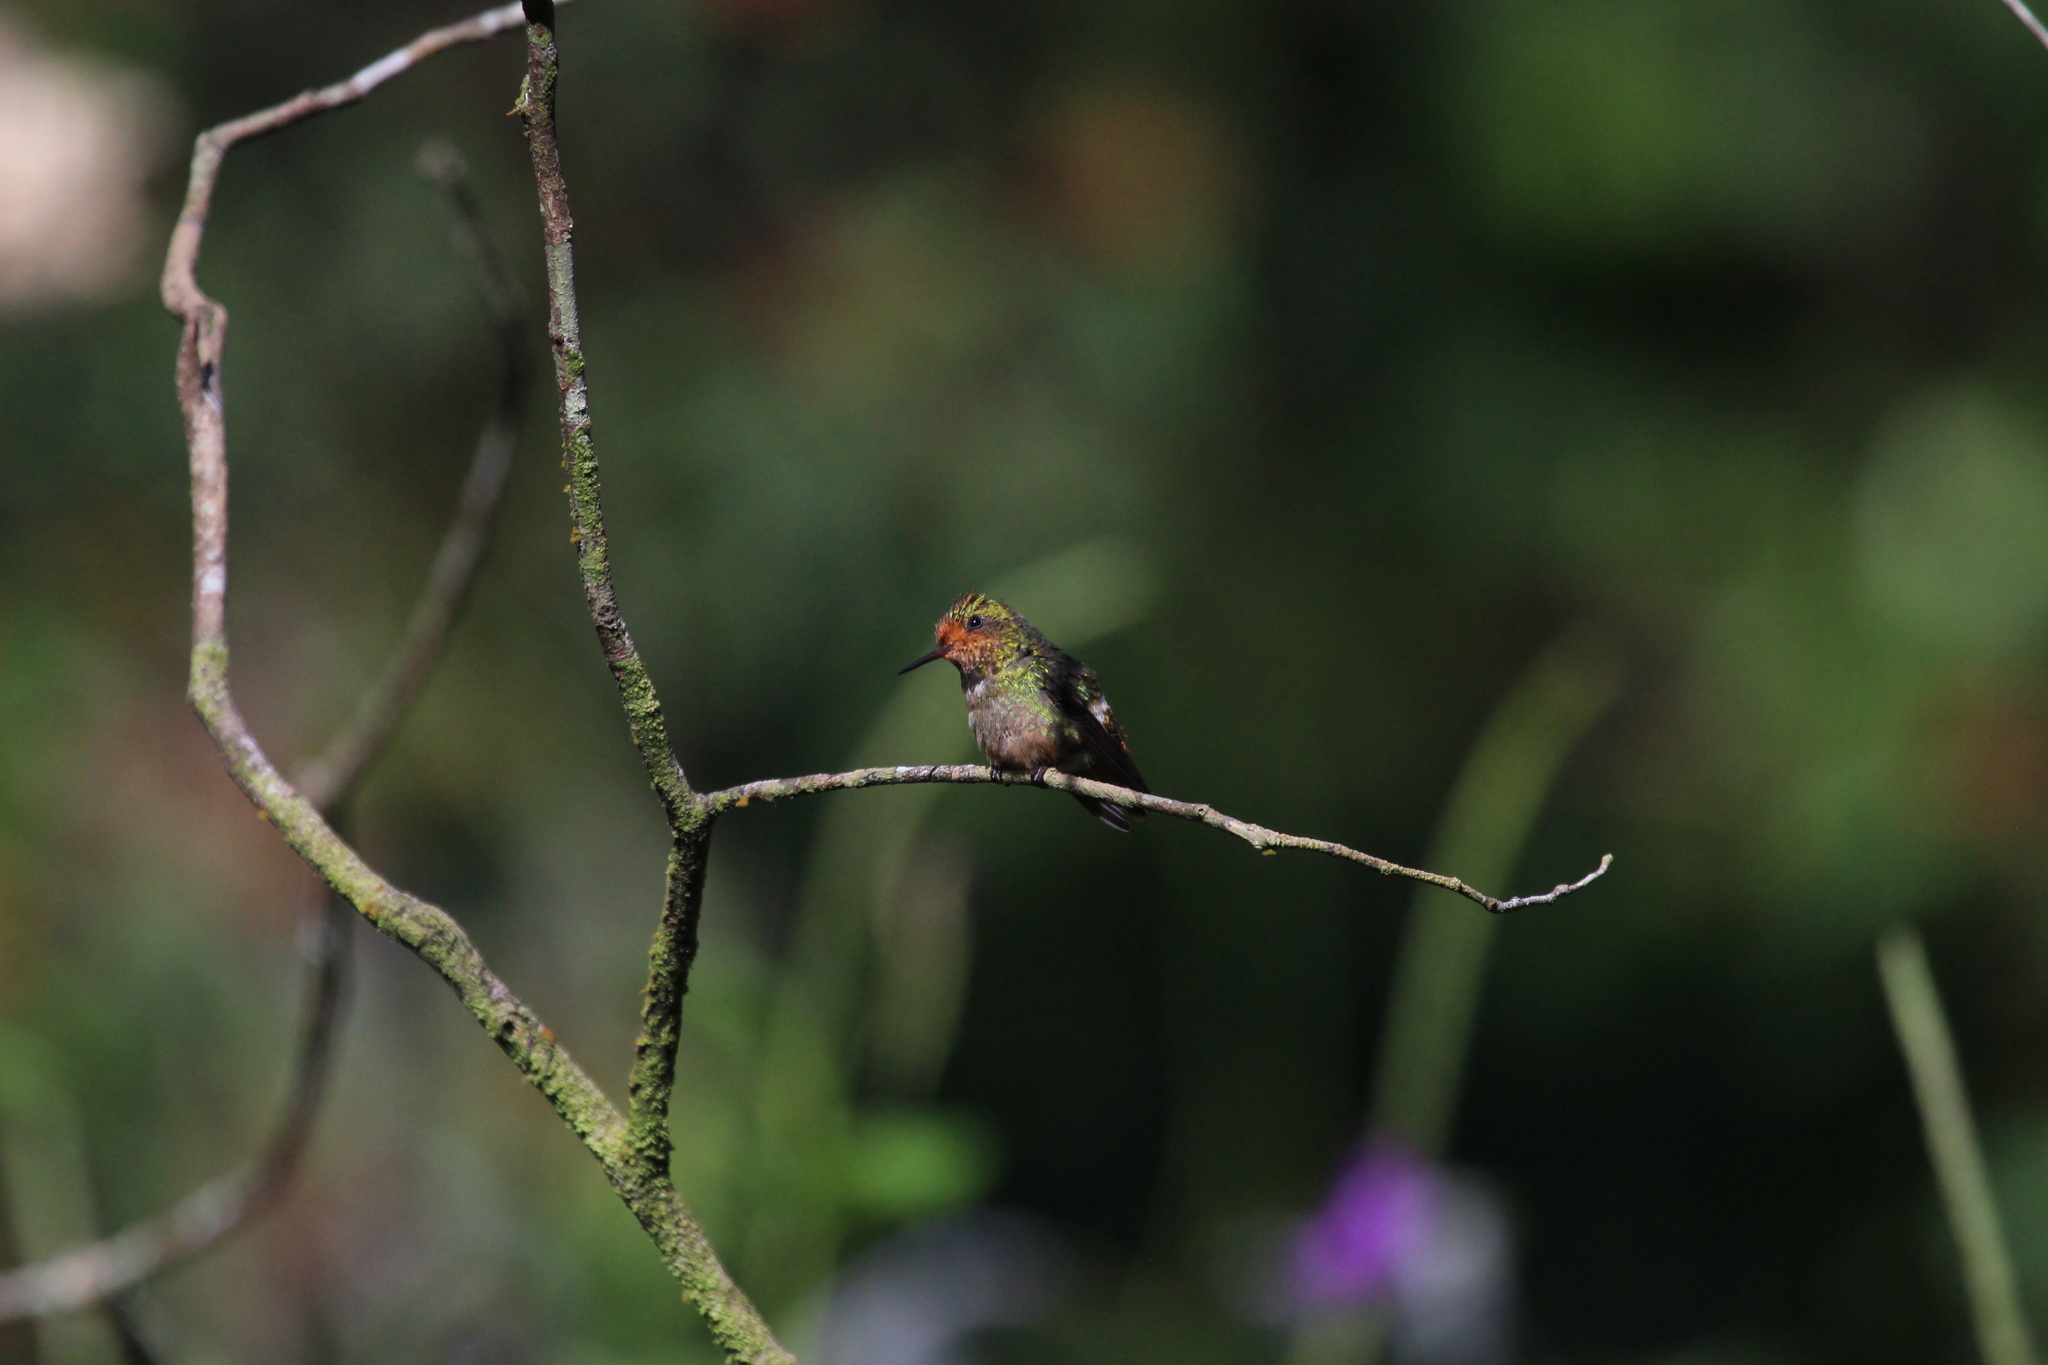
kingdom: Animalia
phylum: Chordata
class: Aves
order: Apodiformes
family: Trochilidae
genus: Lophornis
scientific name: Lophornis delattrei
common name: Rufous-crested coquette
